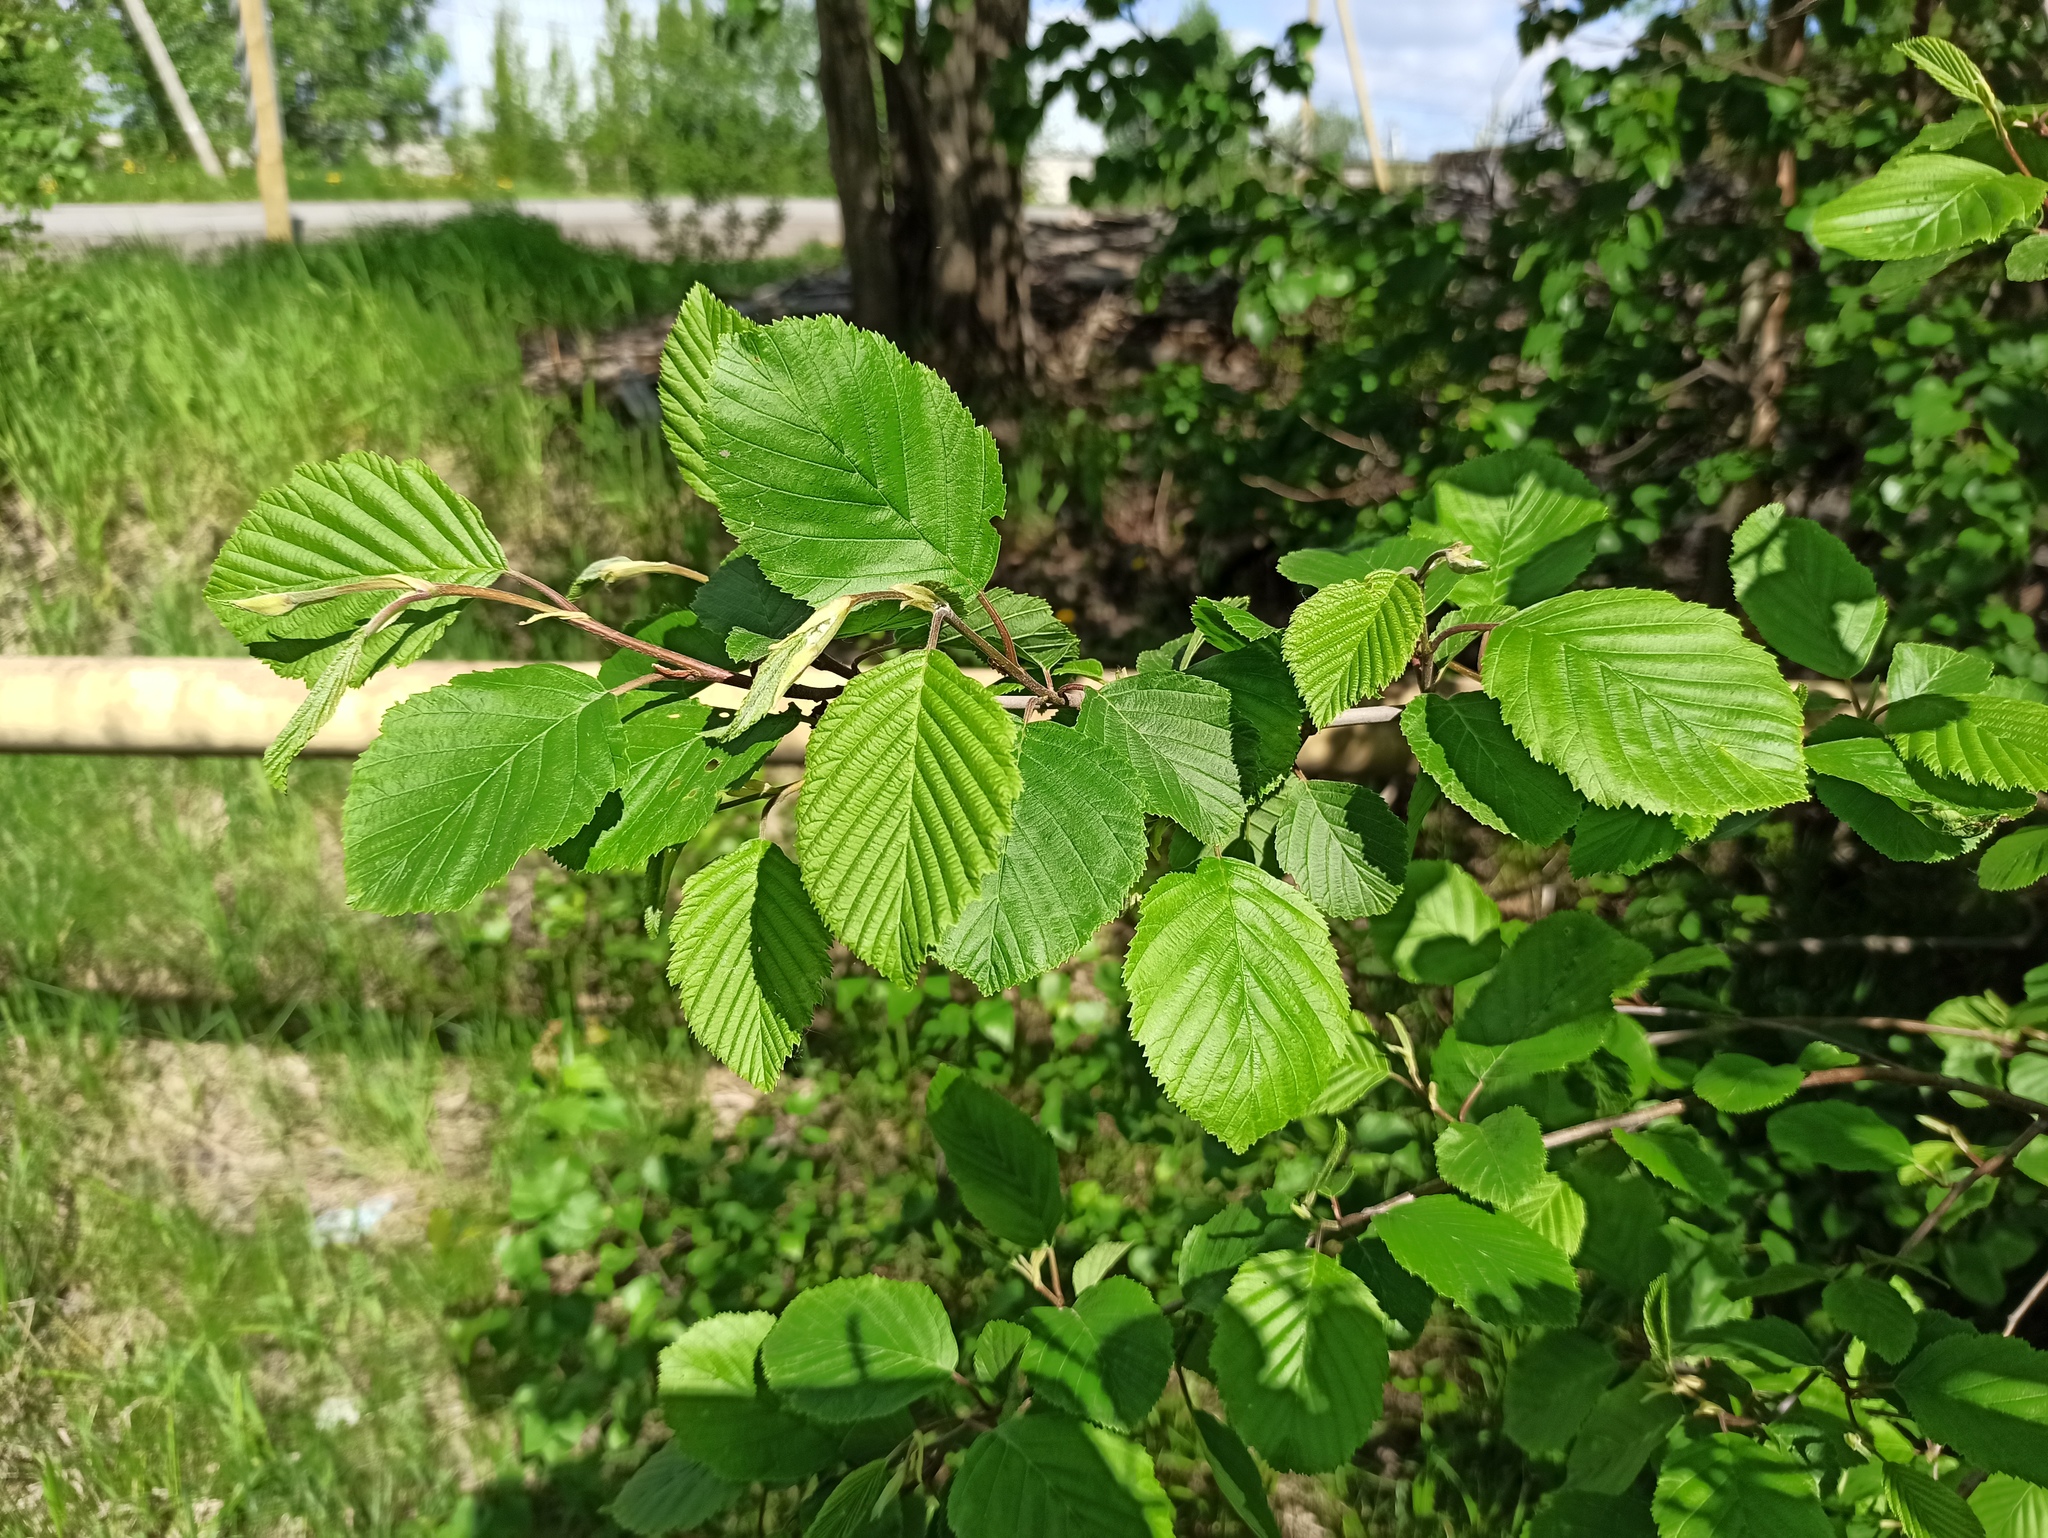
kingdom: Plantae
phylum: Tracheophyta
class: Magnoliopsida
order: Fagales
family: Betulaceae
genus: Alnus
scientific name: Alnus incana
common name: Grey alder
